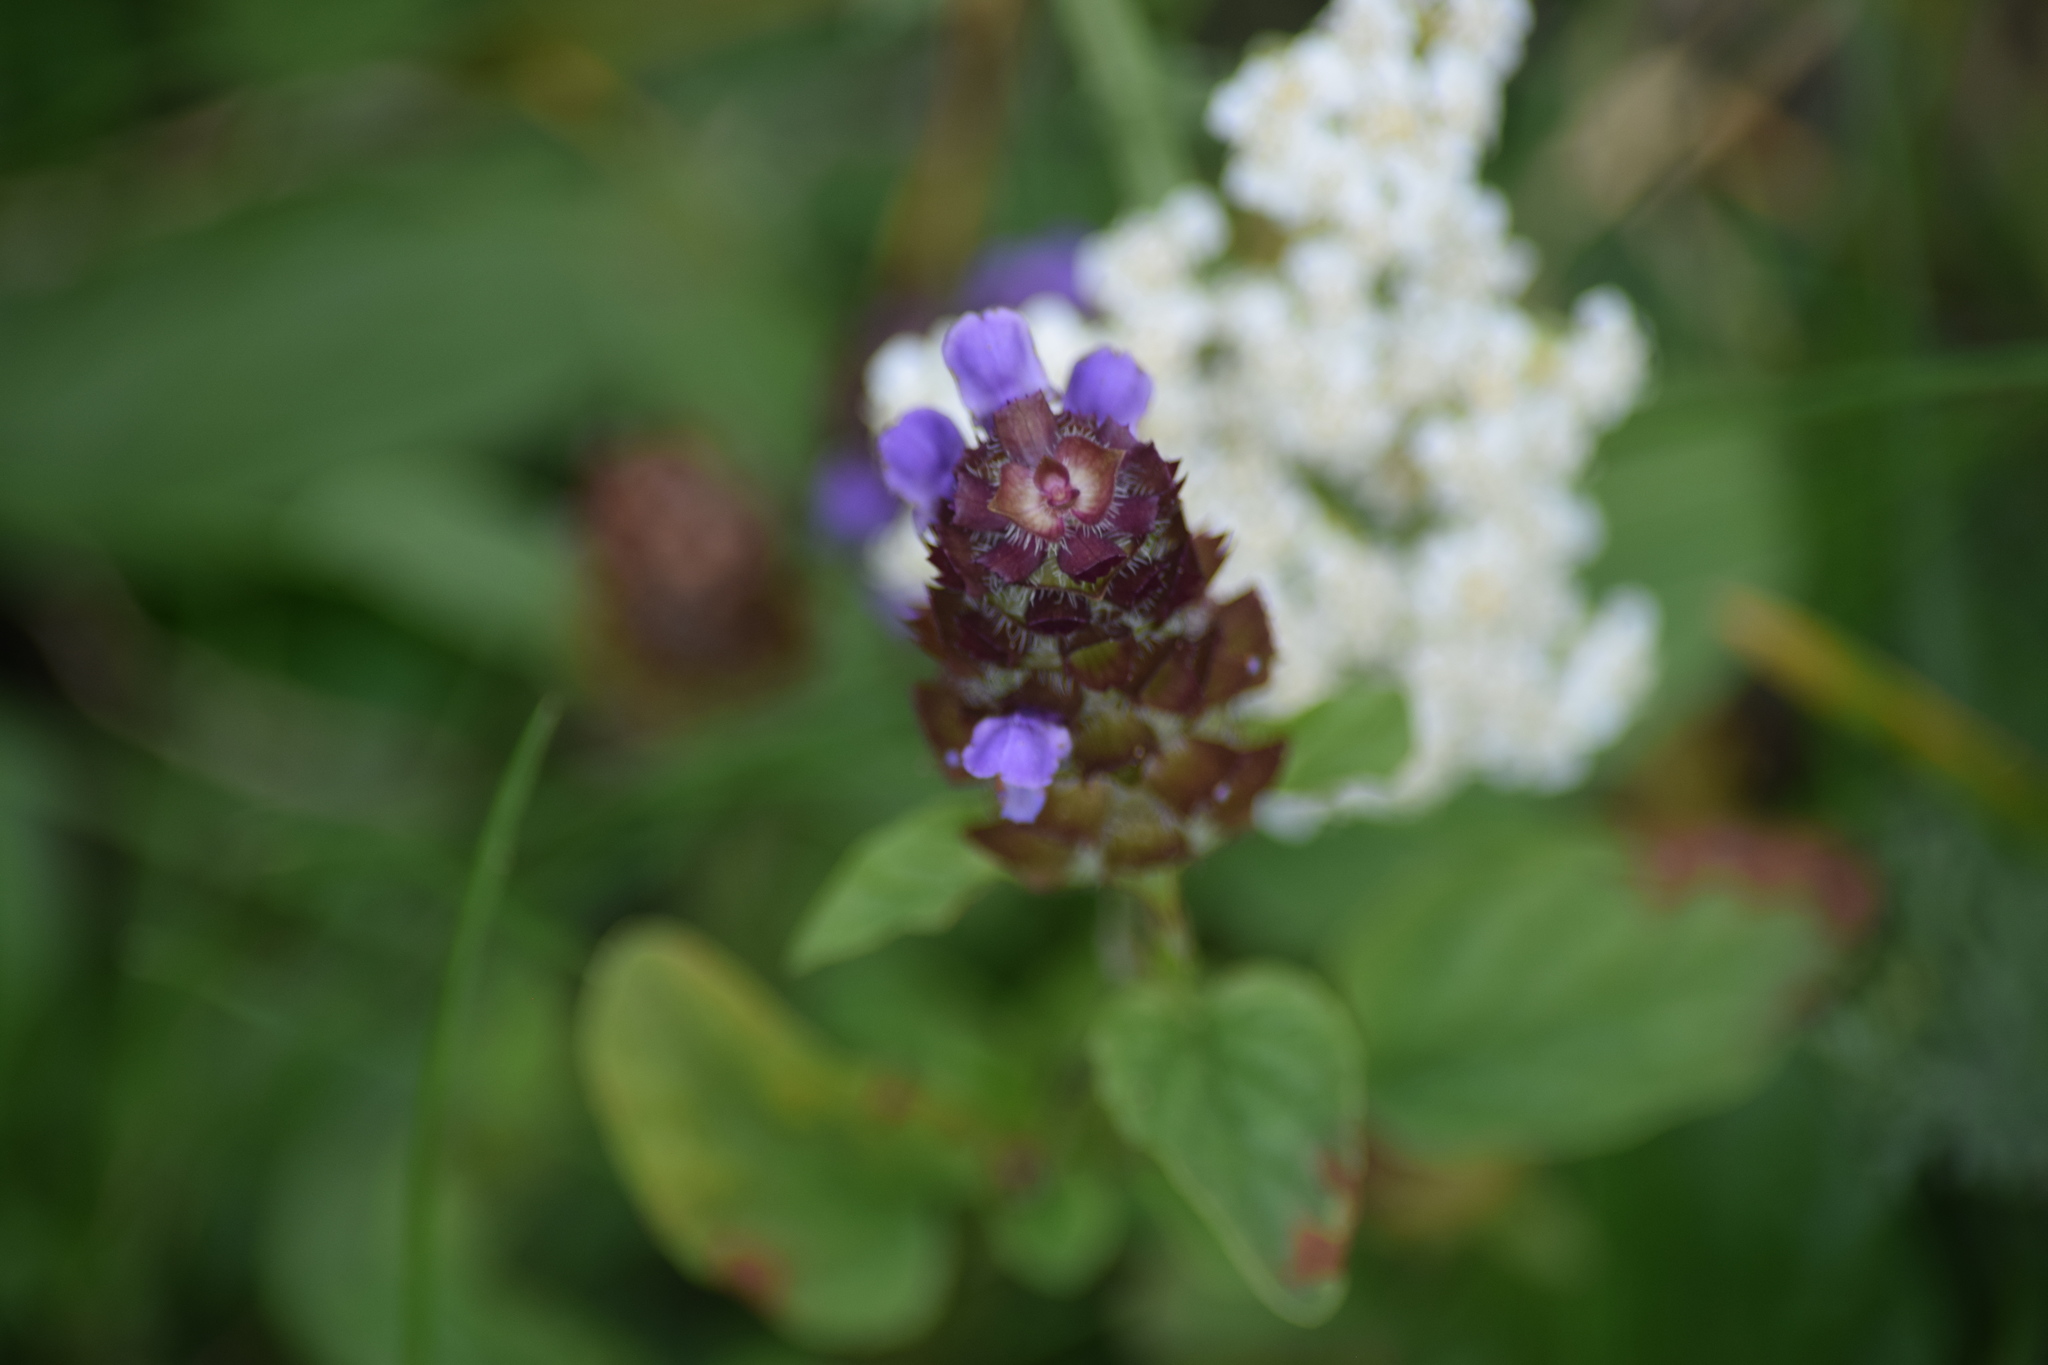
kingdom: Plantae
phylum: Tracheophyta
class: Magnoliopsida
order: Lamiales
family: Lamiaceae
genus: Prunella
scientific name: Prunella vulgaris
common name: Heal-all
